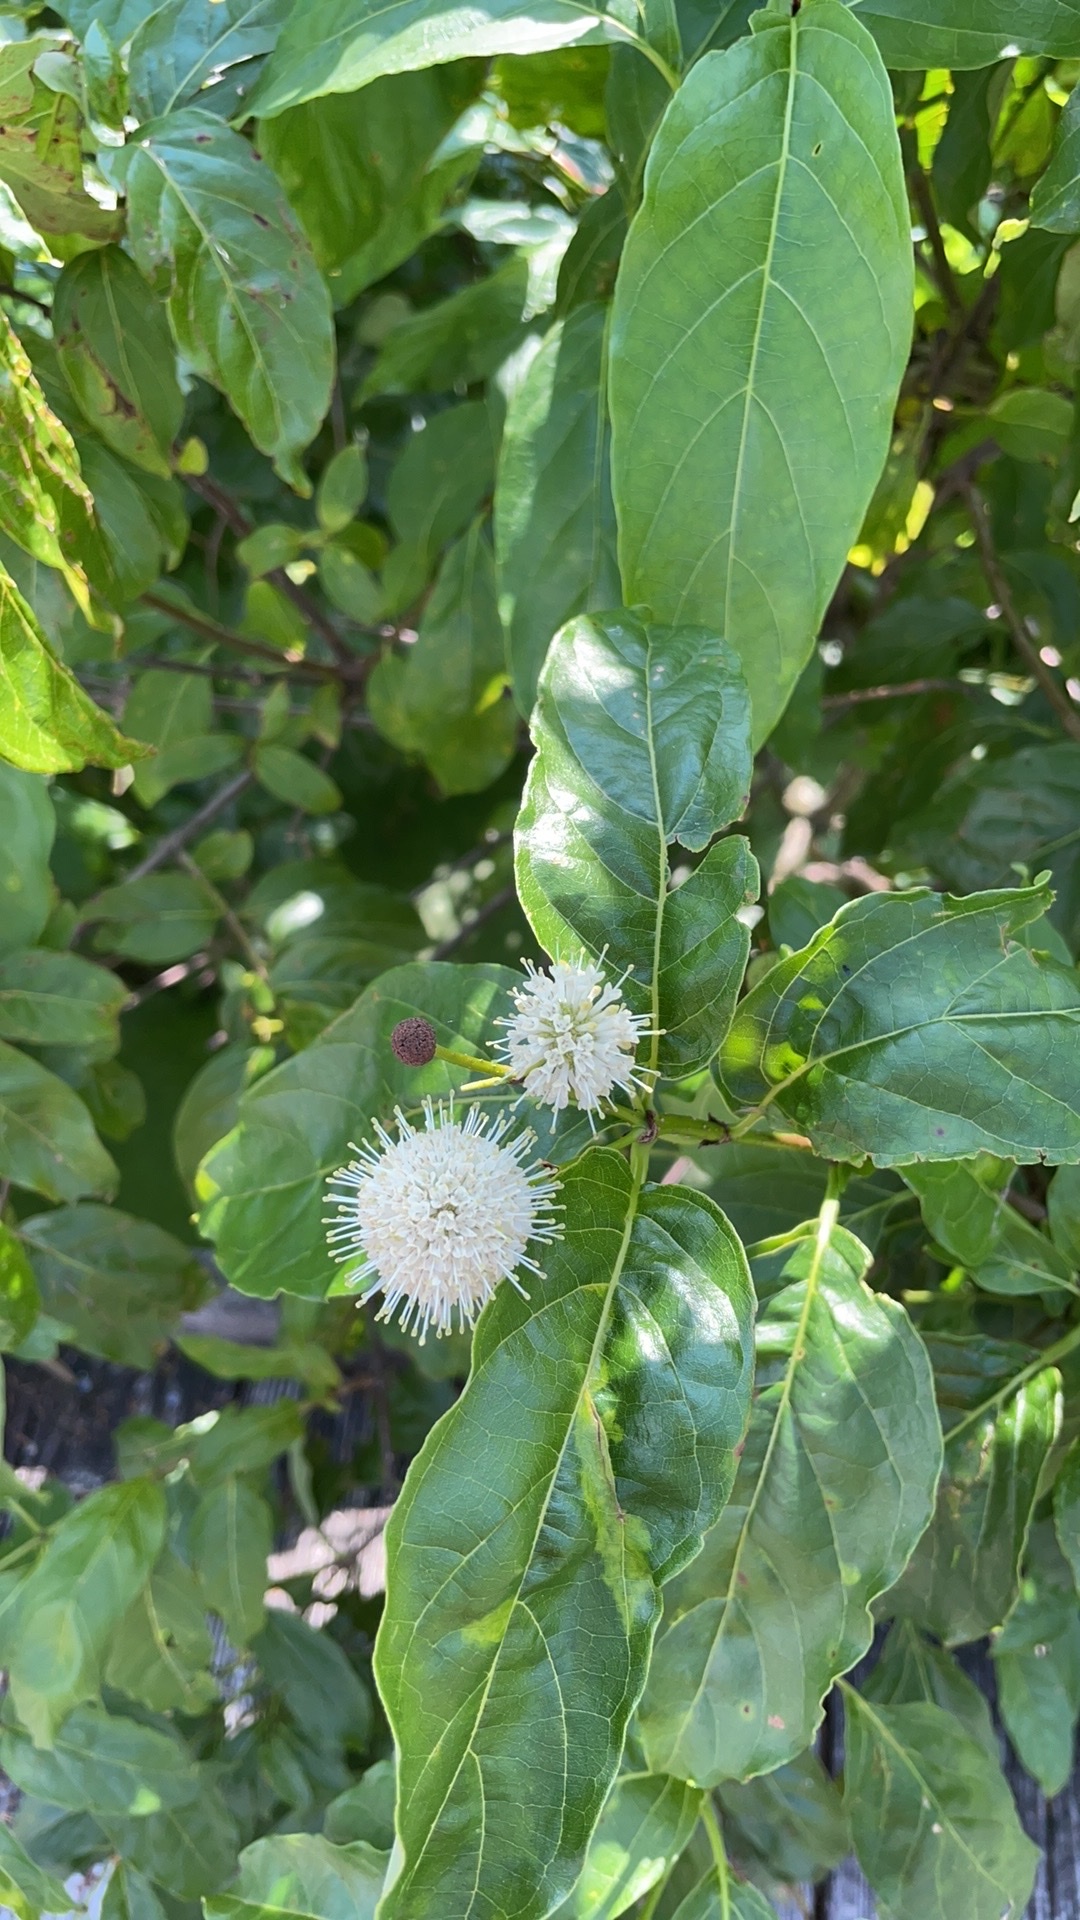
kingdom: Plantae
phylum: Tracheophyta
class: Magnoliopsida
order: Gentianales
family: Rubiaceae
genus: Cephalanthus
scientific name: Cephalanthus occidentalis
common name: Button-willow
